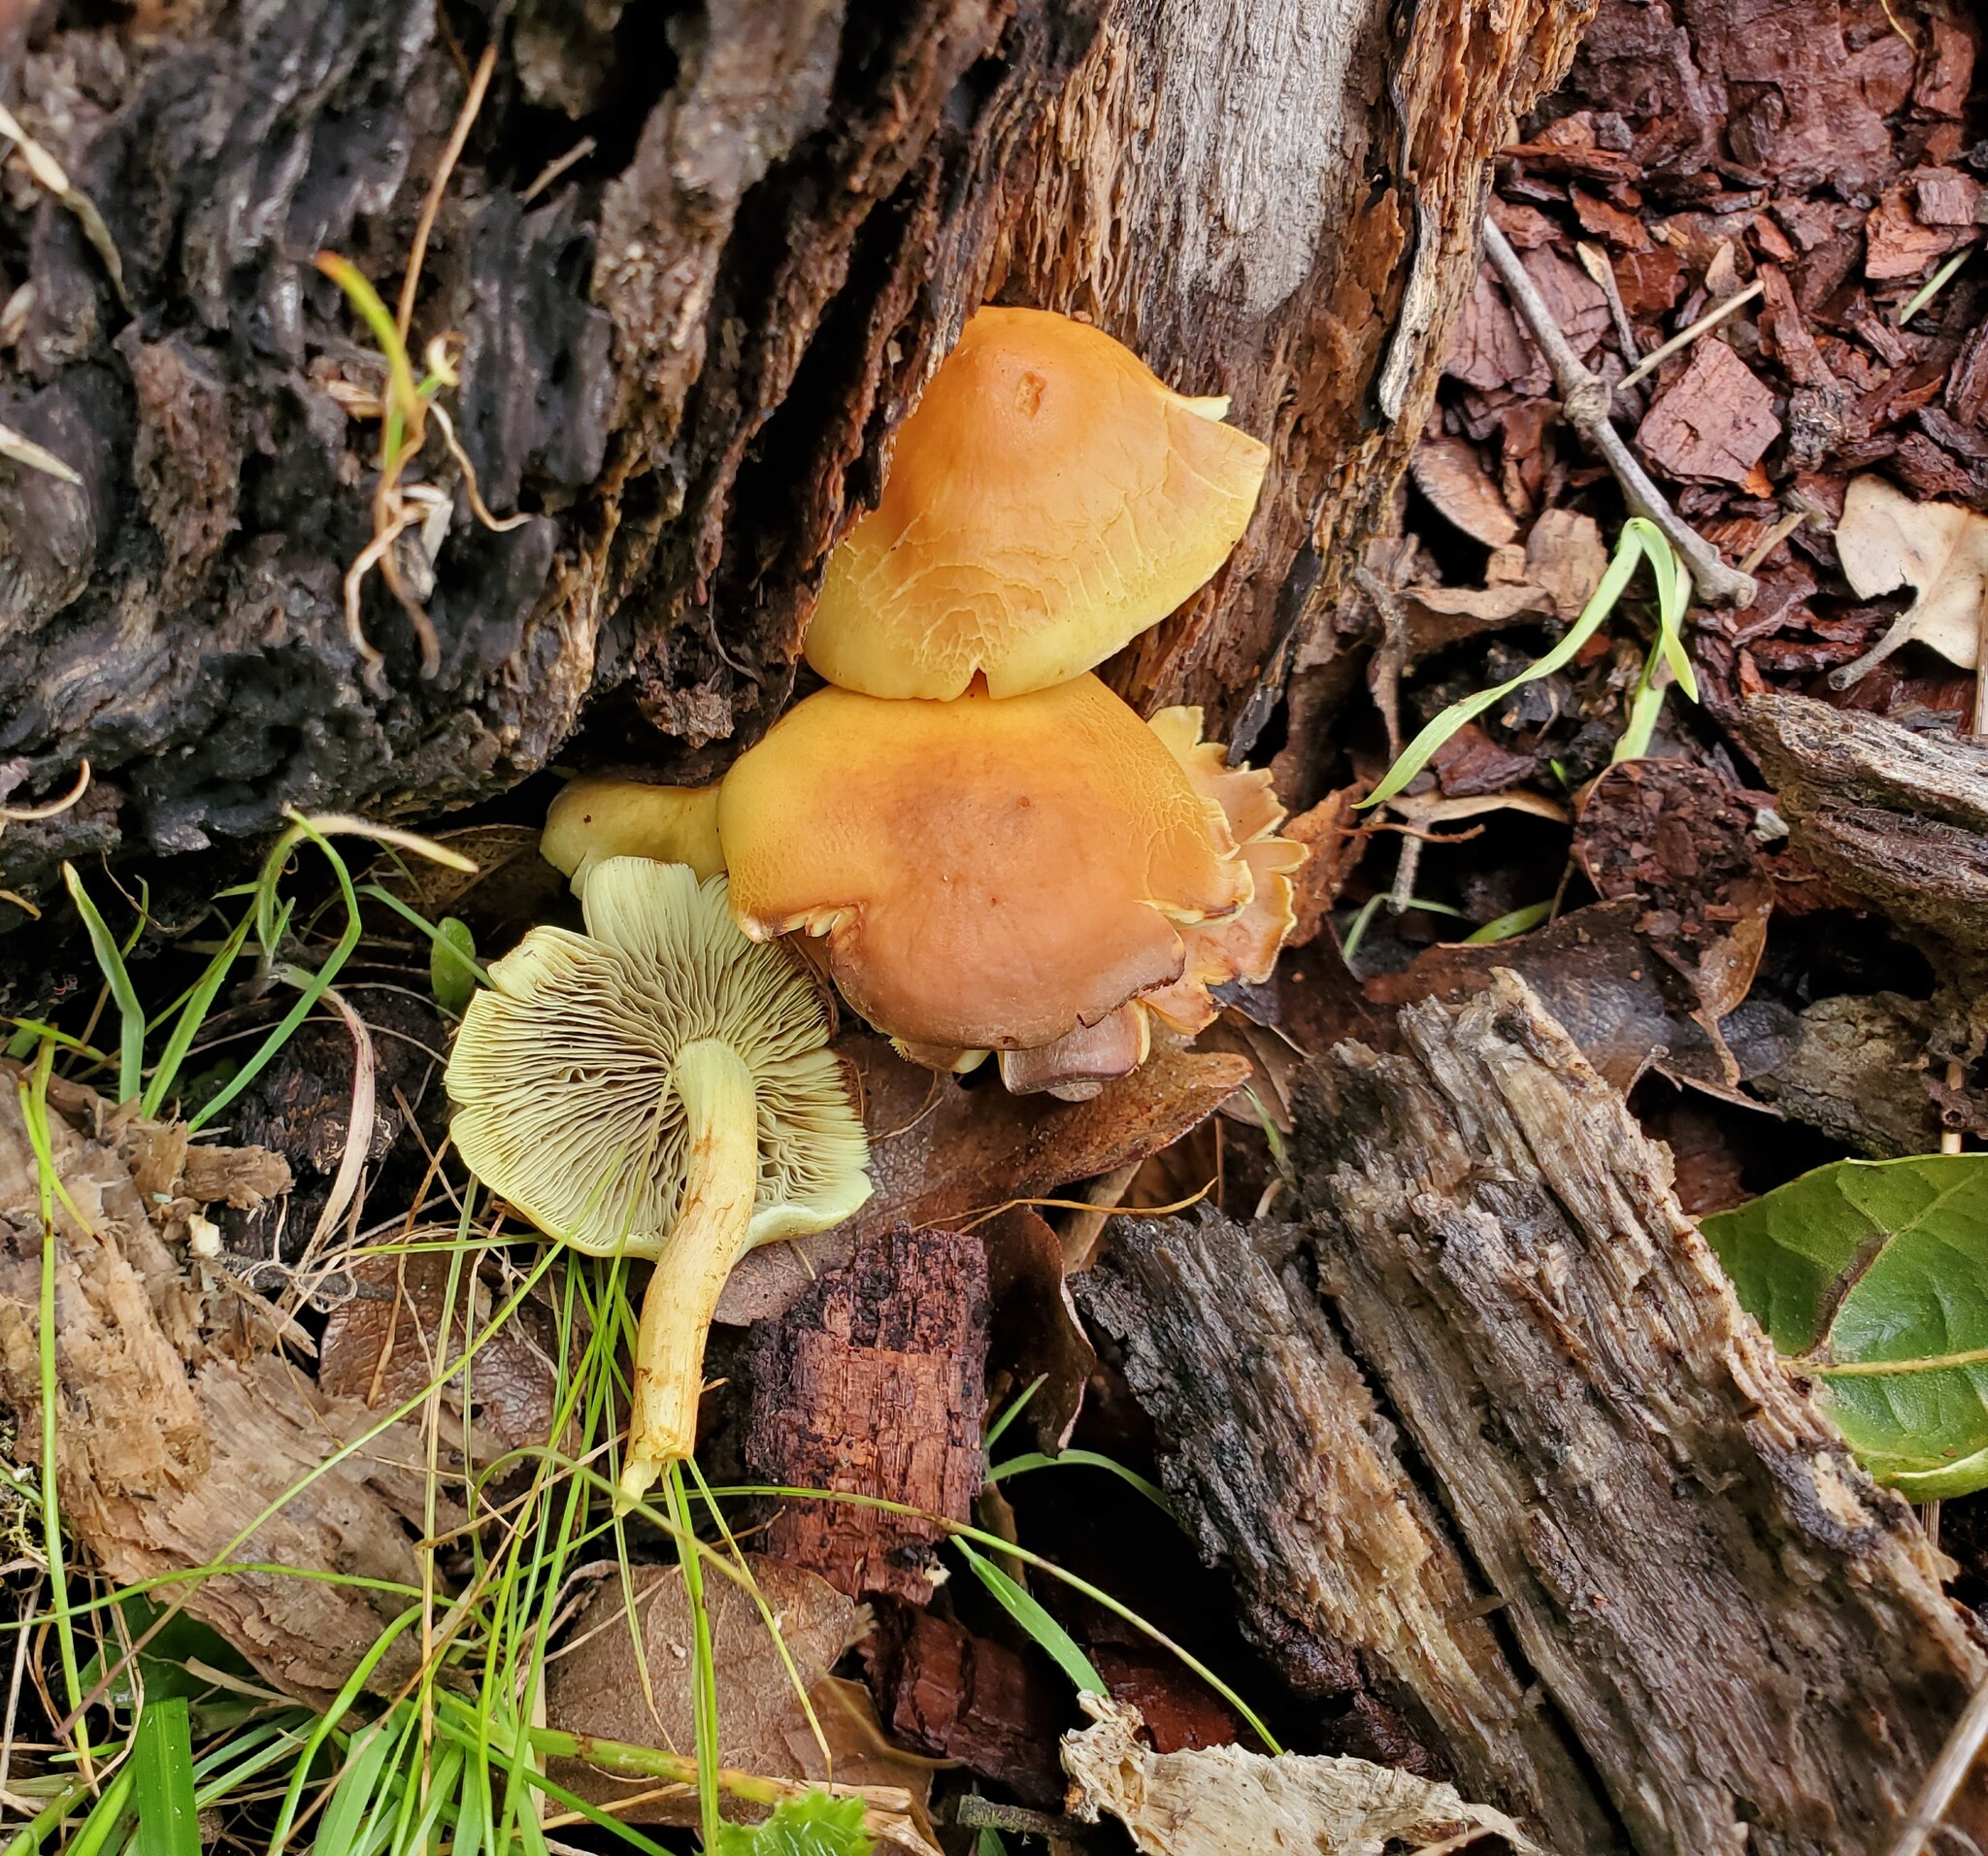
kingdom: Fungi
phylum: Basidiomycota
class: Agaricomycetes
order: Agaricales
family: Strophariaceae
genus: Hypholoma
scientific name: Hypholoma fasciculare
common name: Sulphur tuft
